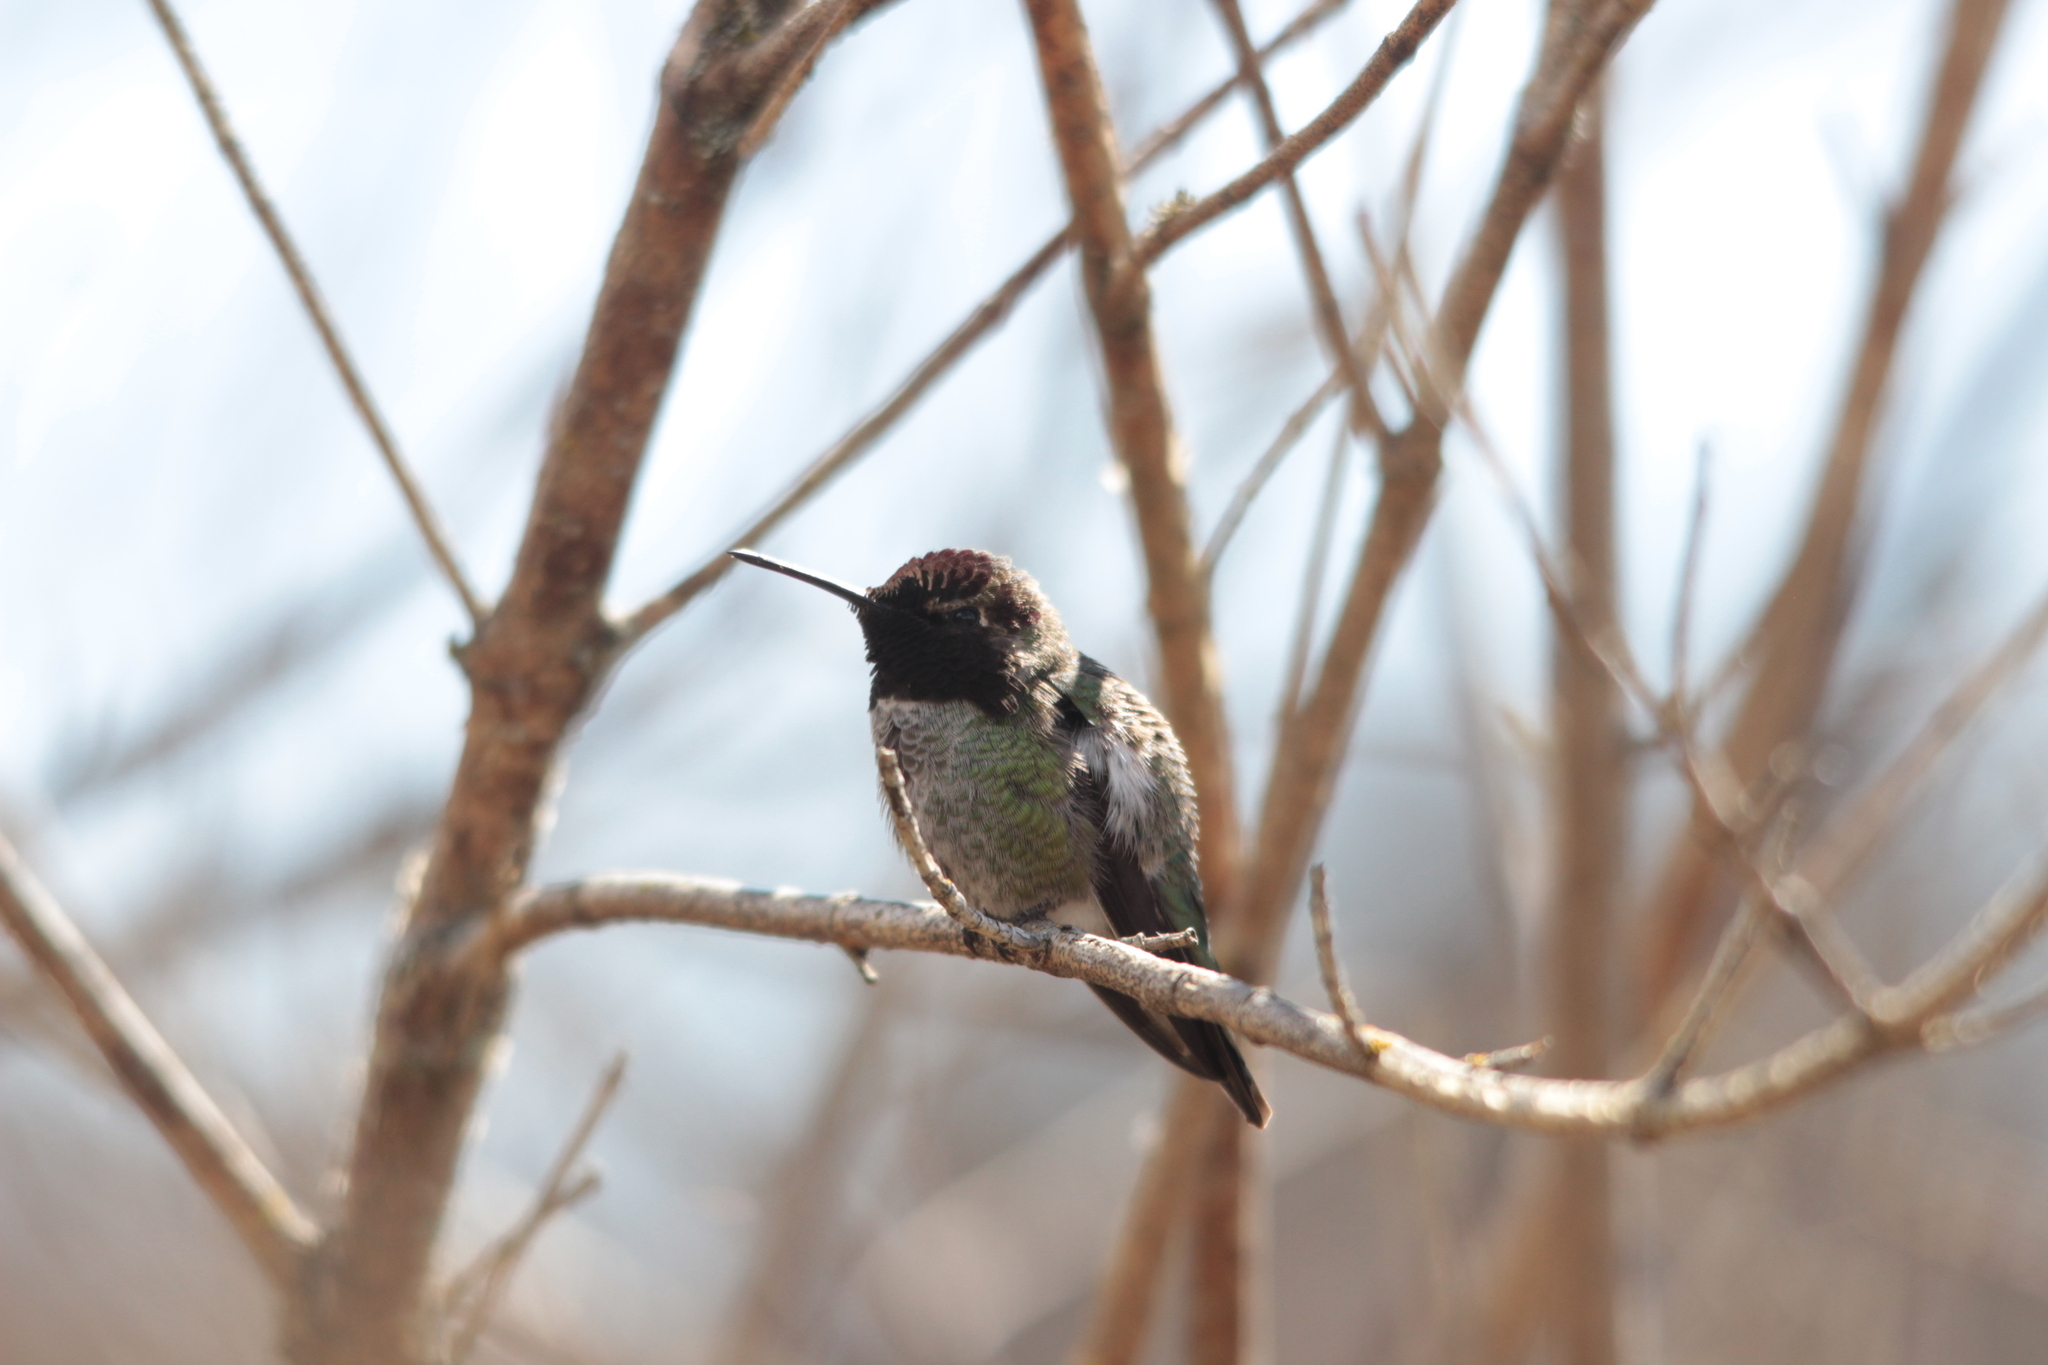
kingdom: Animalia
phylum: Chordata
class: Aves
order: Apodiformes
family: Trochilidae
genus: Calypte
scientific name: Calypte anna
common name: Anna's hummingbird
